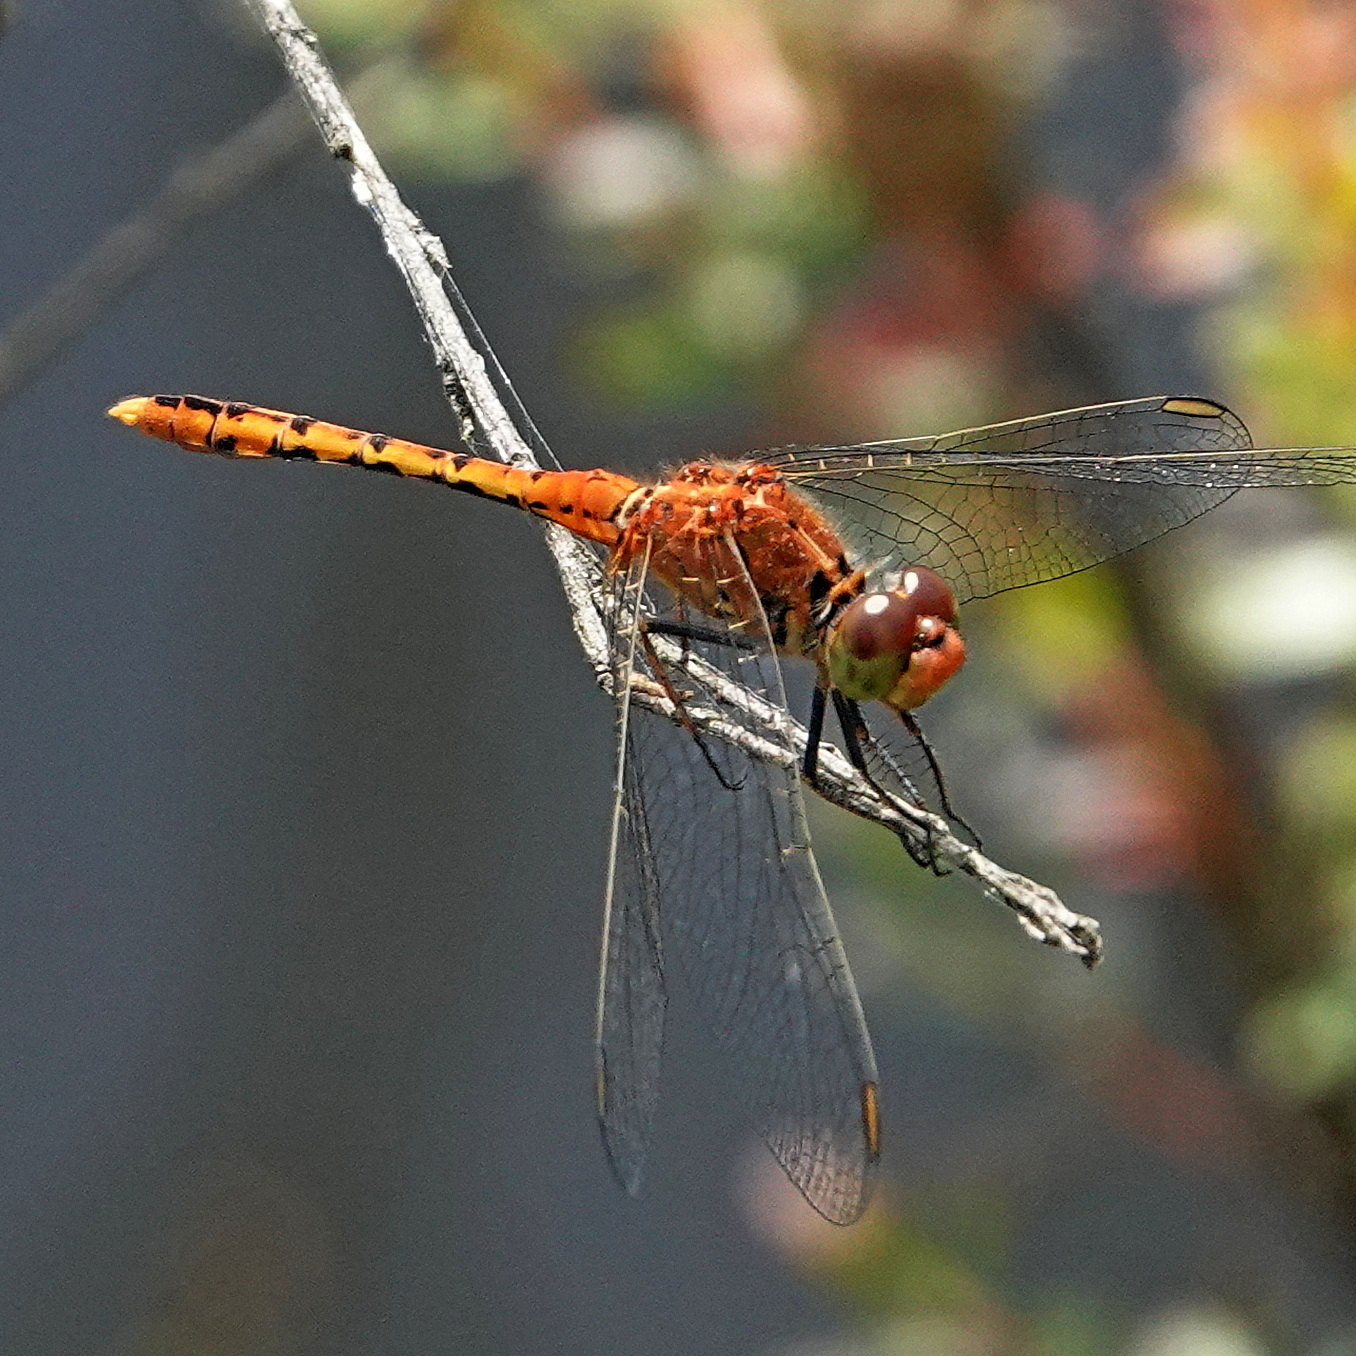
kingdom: Animalia
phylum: Arthropoda
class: Insecta
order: Odonata
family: Libellulidae
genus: Diplacodes
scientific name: Diplacodes bipunctata
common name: Red percher dragonfly
